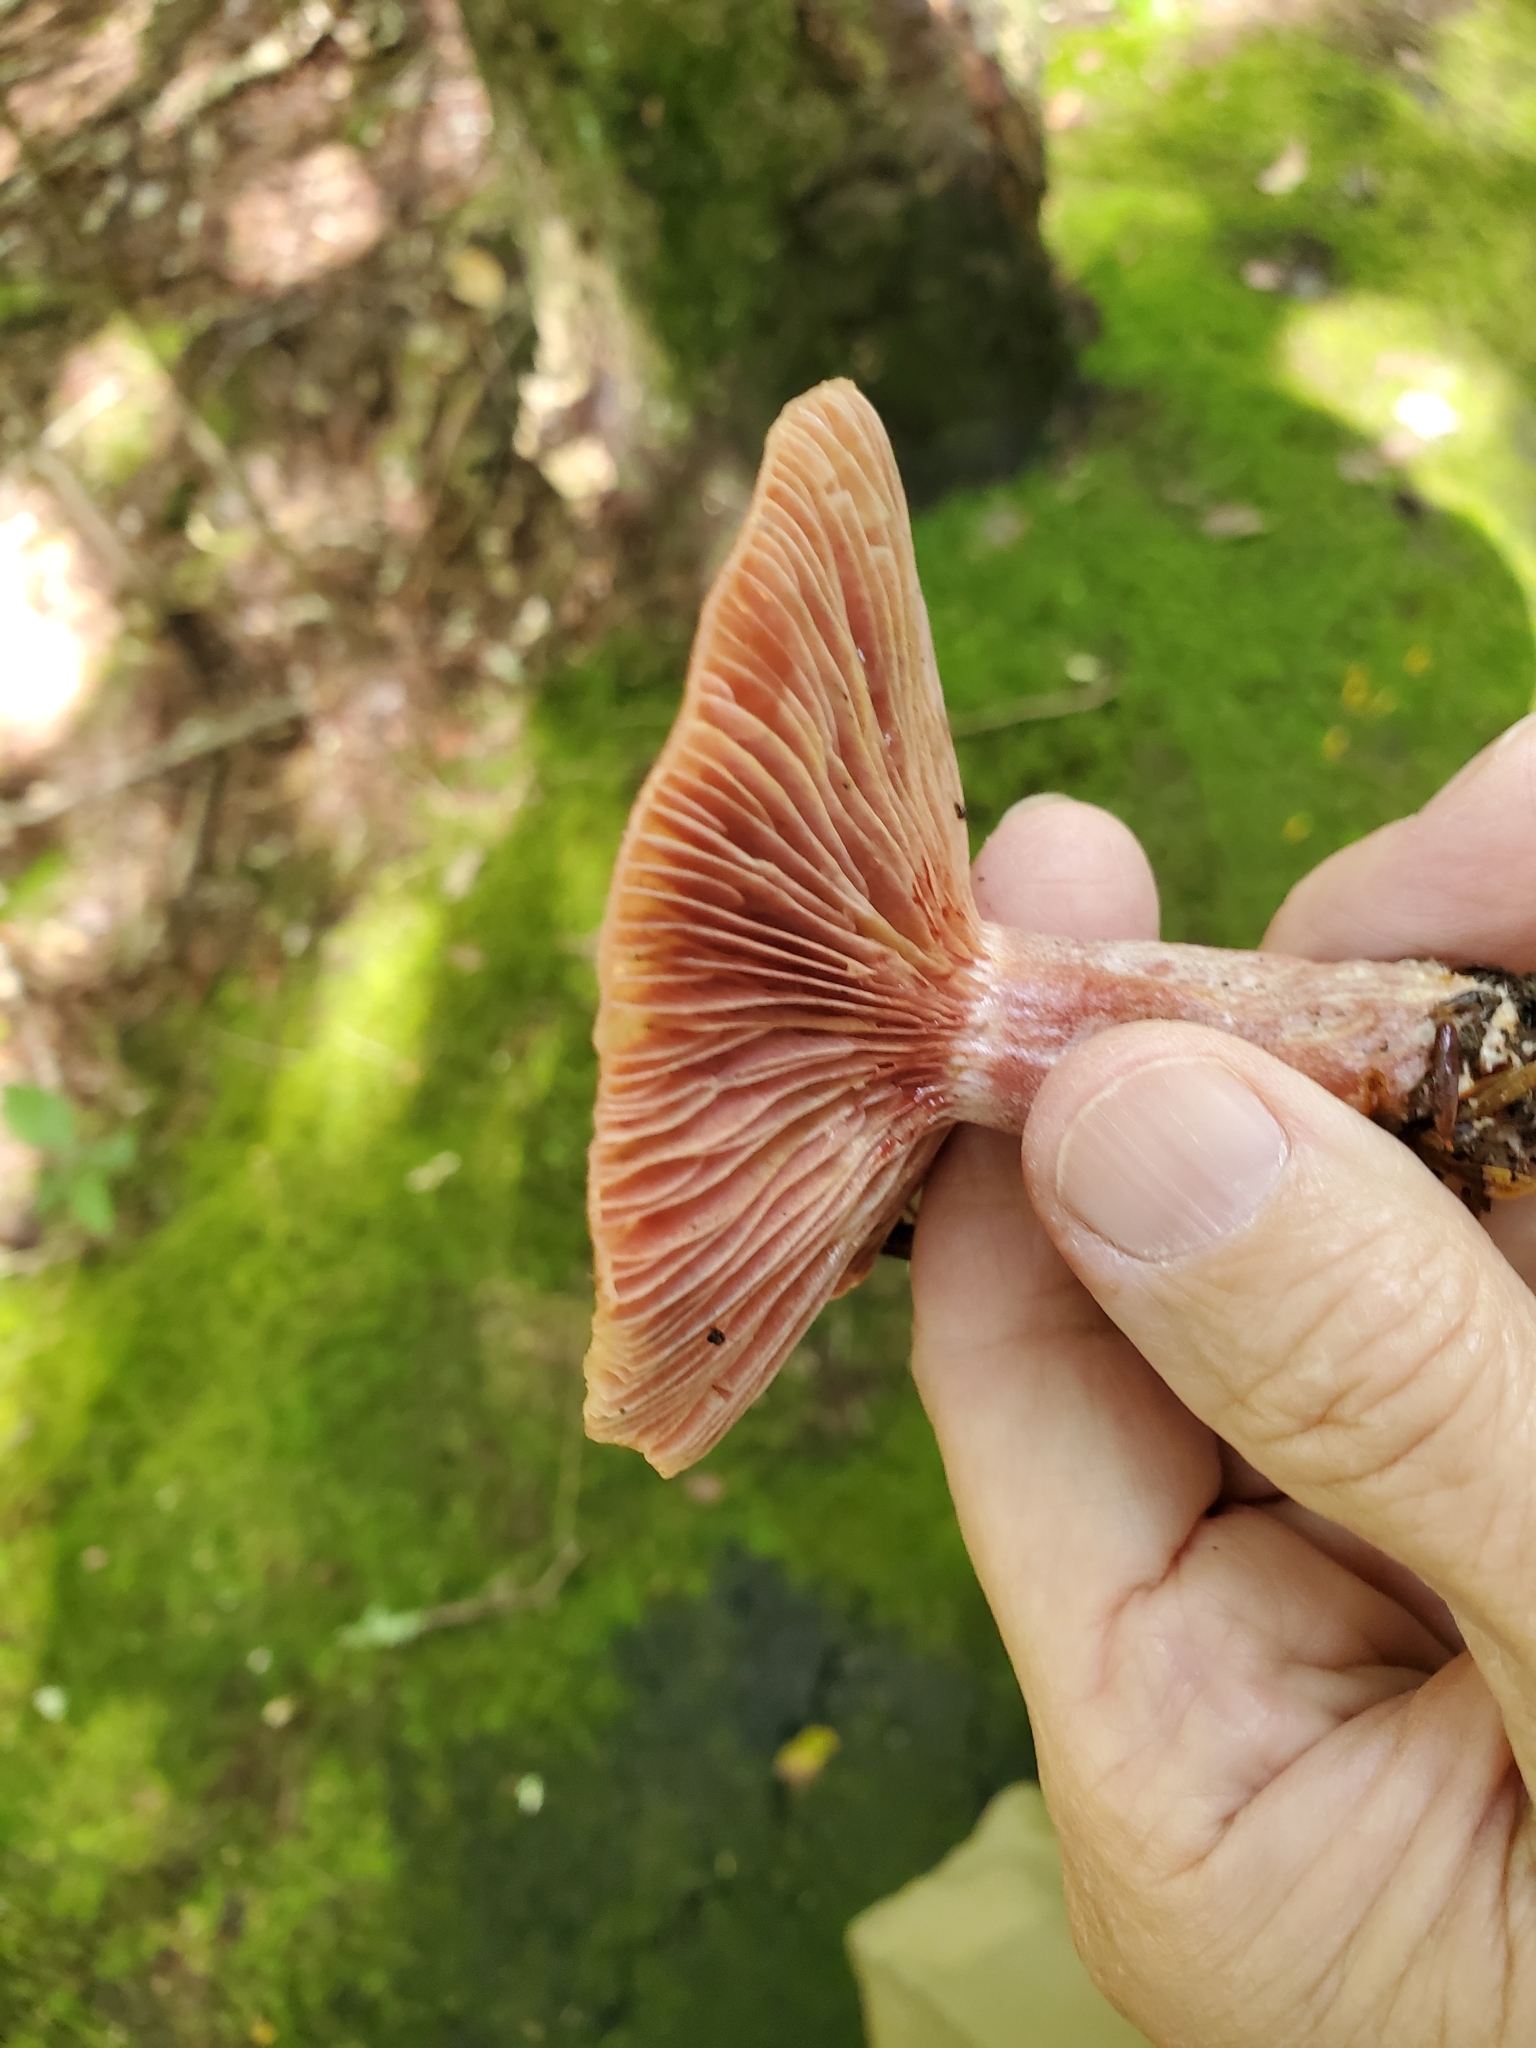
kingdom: Fungi
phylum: Basidiomycota
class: Agaricomycetes
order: Russulales
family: Russulaceae
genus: Lactarius
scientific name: Lactarius subpurpureus
